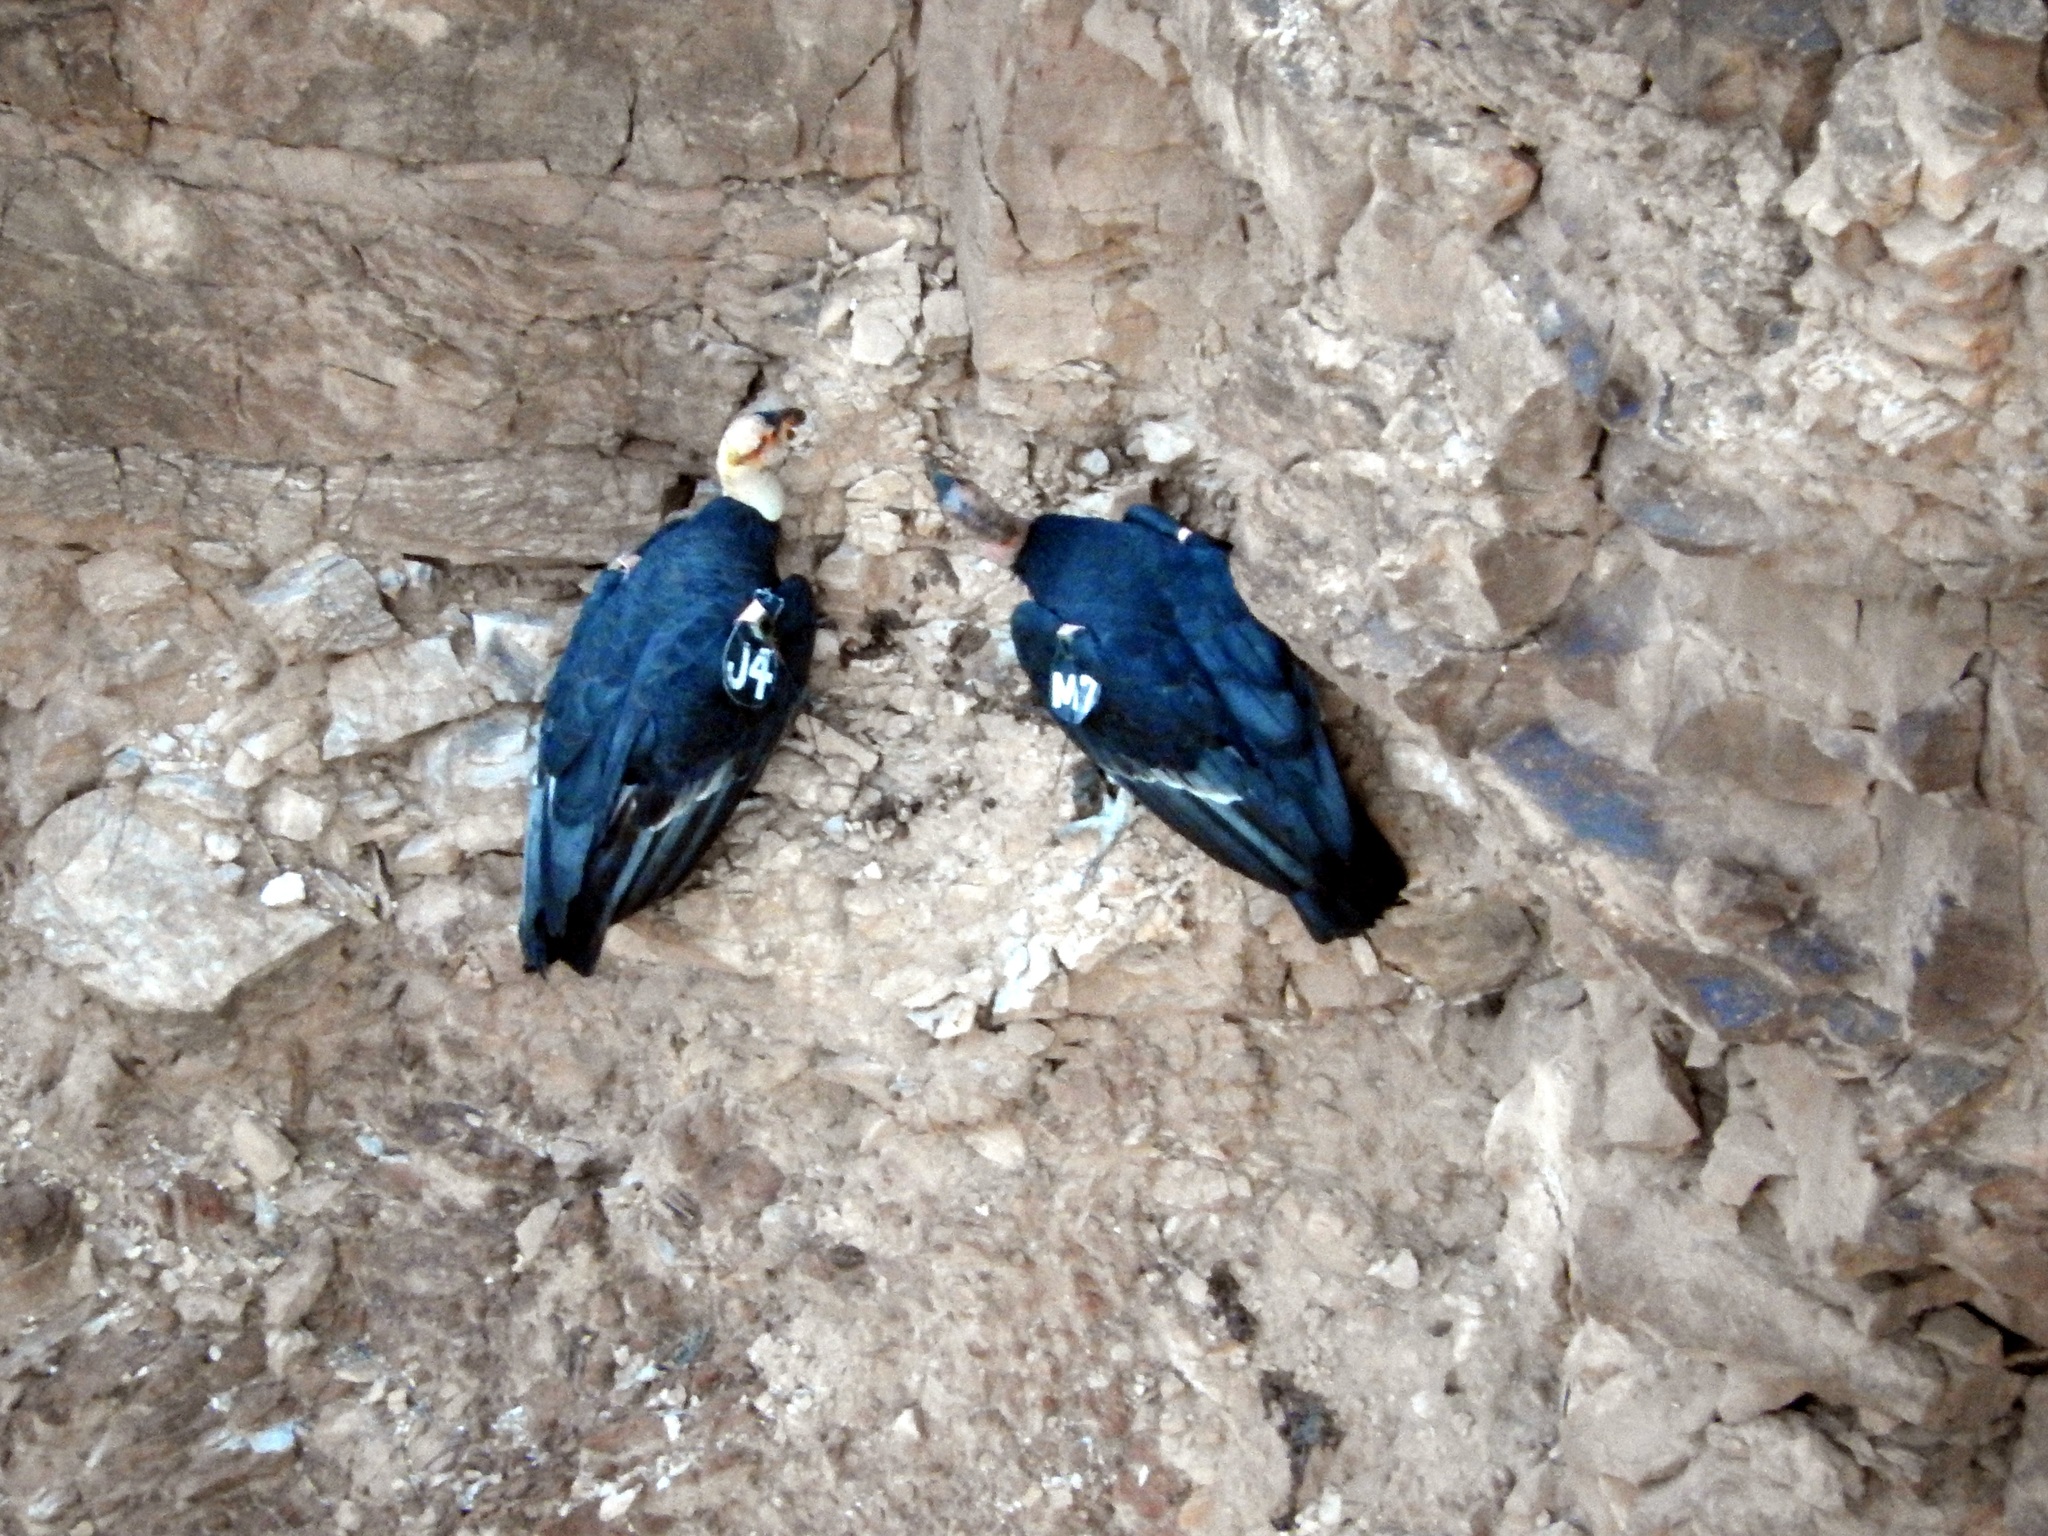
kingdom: Animalia
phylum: Chordata
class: Aves
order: Accipitriformes
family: Cathartidae
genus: Gymnogyps
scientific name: Gymnogyps californianus
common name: California condor
